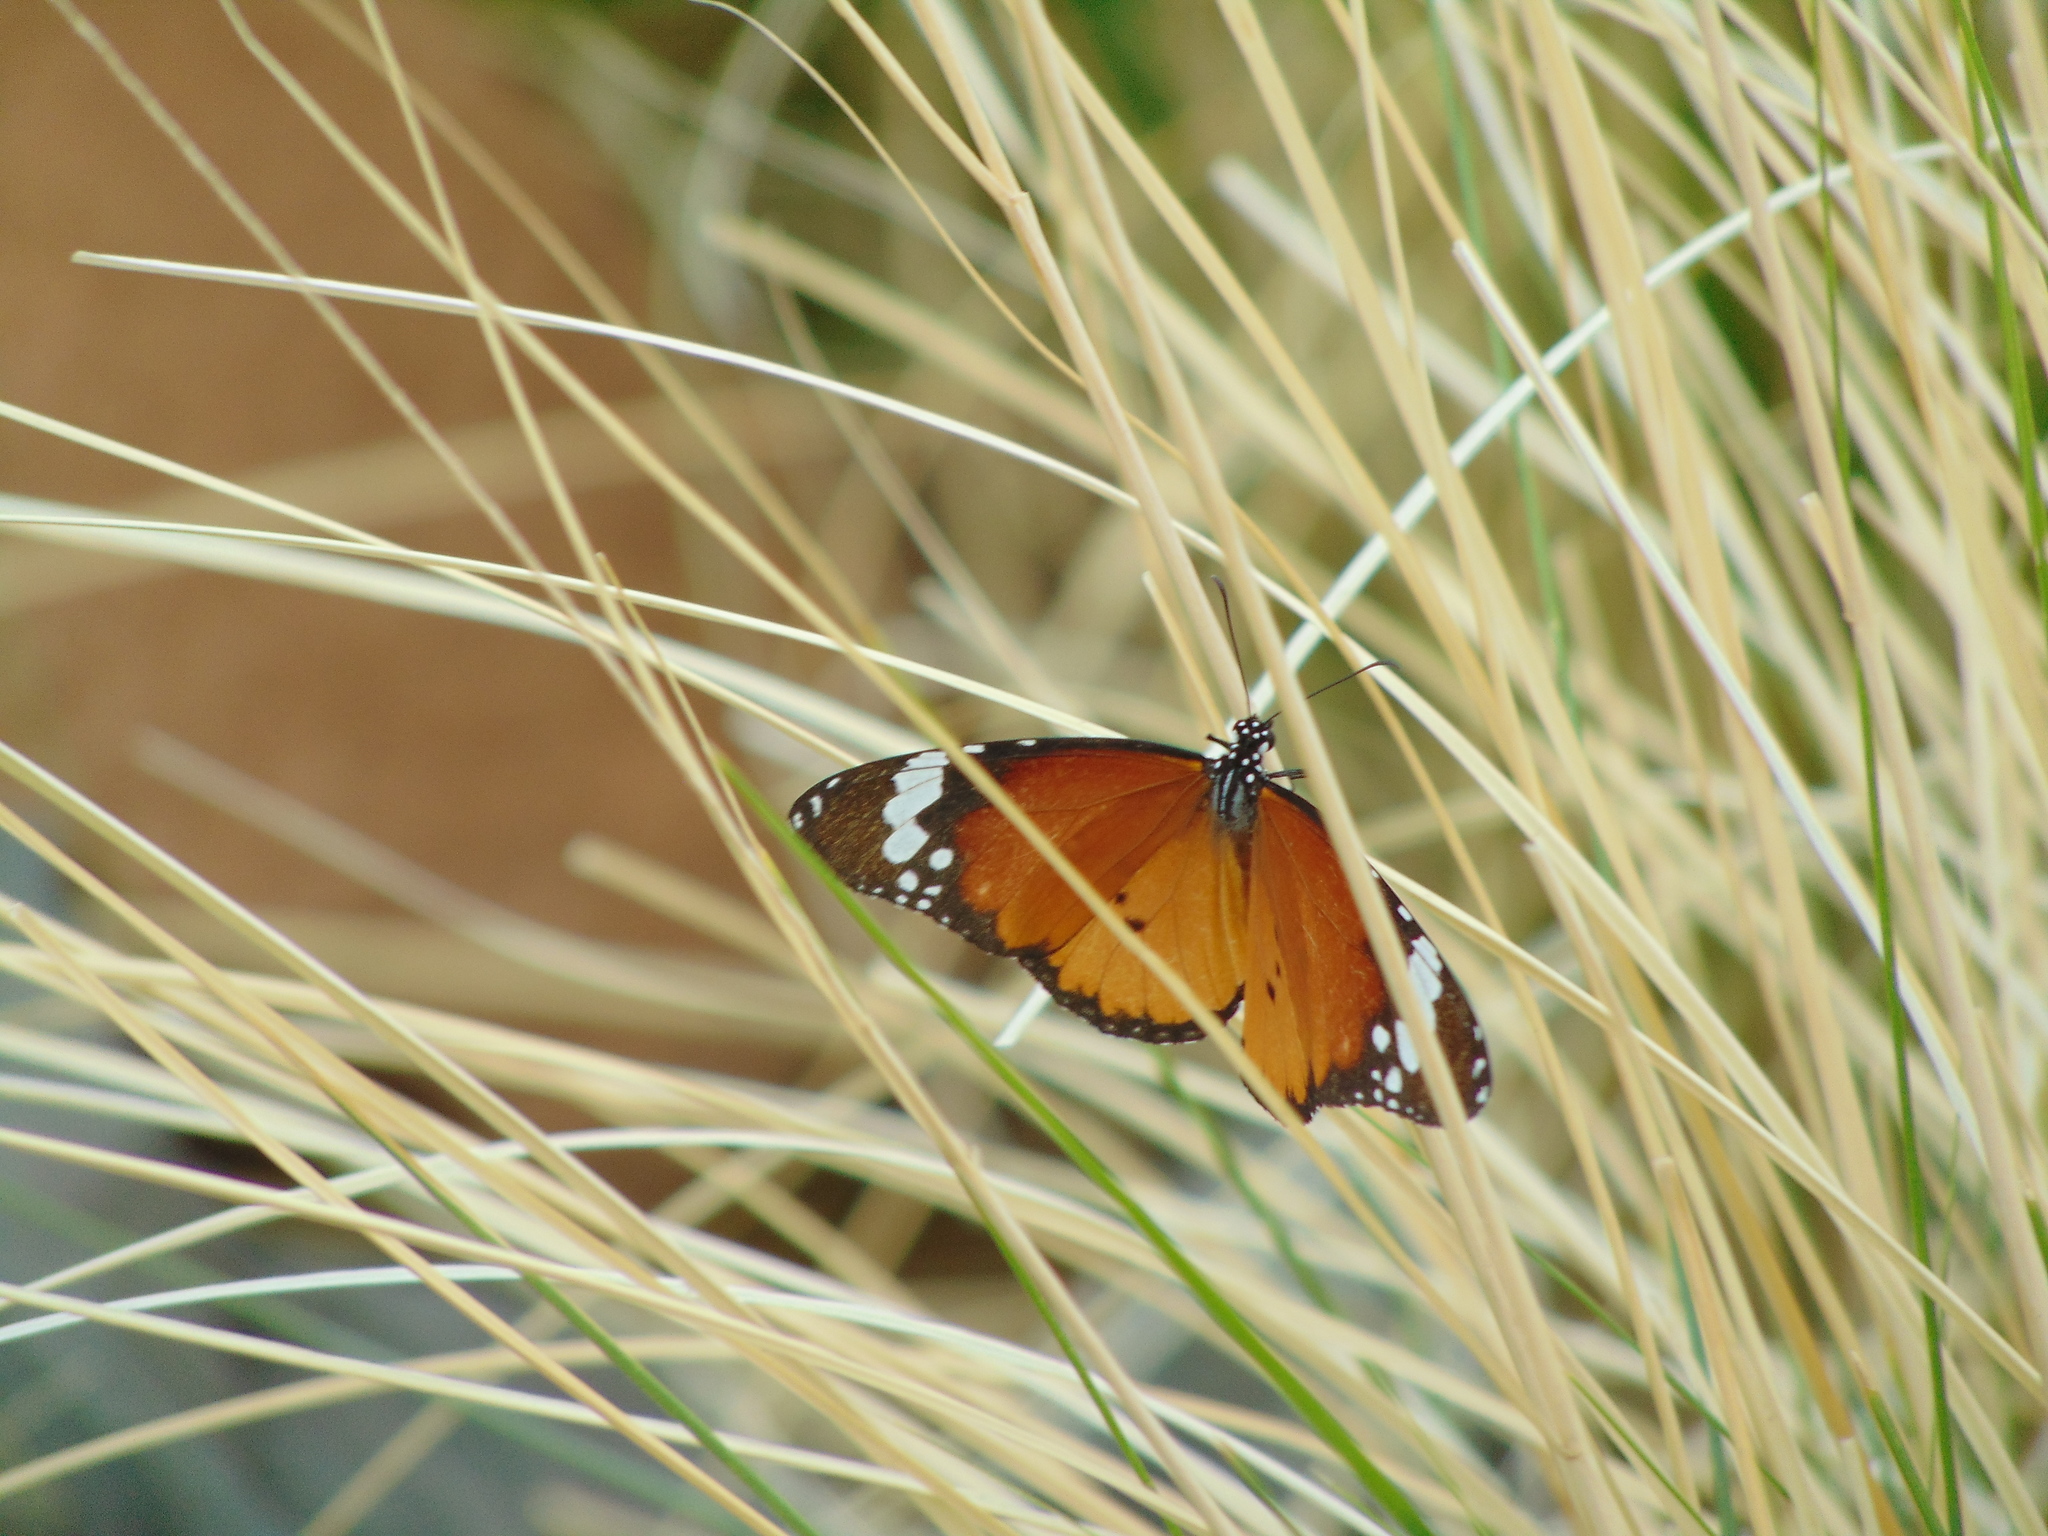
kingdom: Animalia
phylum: Arthropoda
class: Insecta
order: Lepidoptera
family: Nymphalidae
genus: Danaus
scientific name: Danaus chrysippus
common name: Plain tiger
